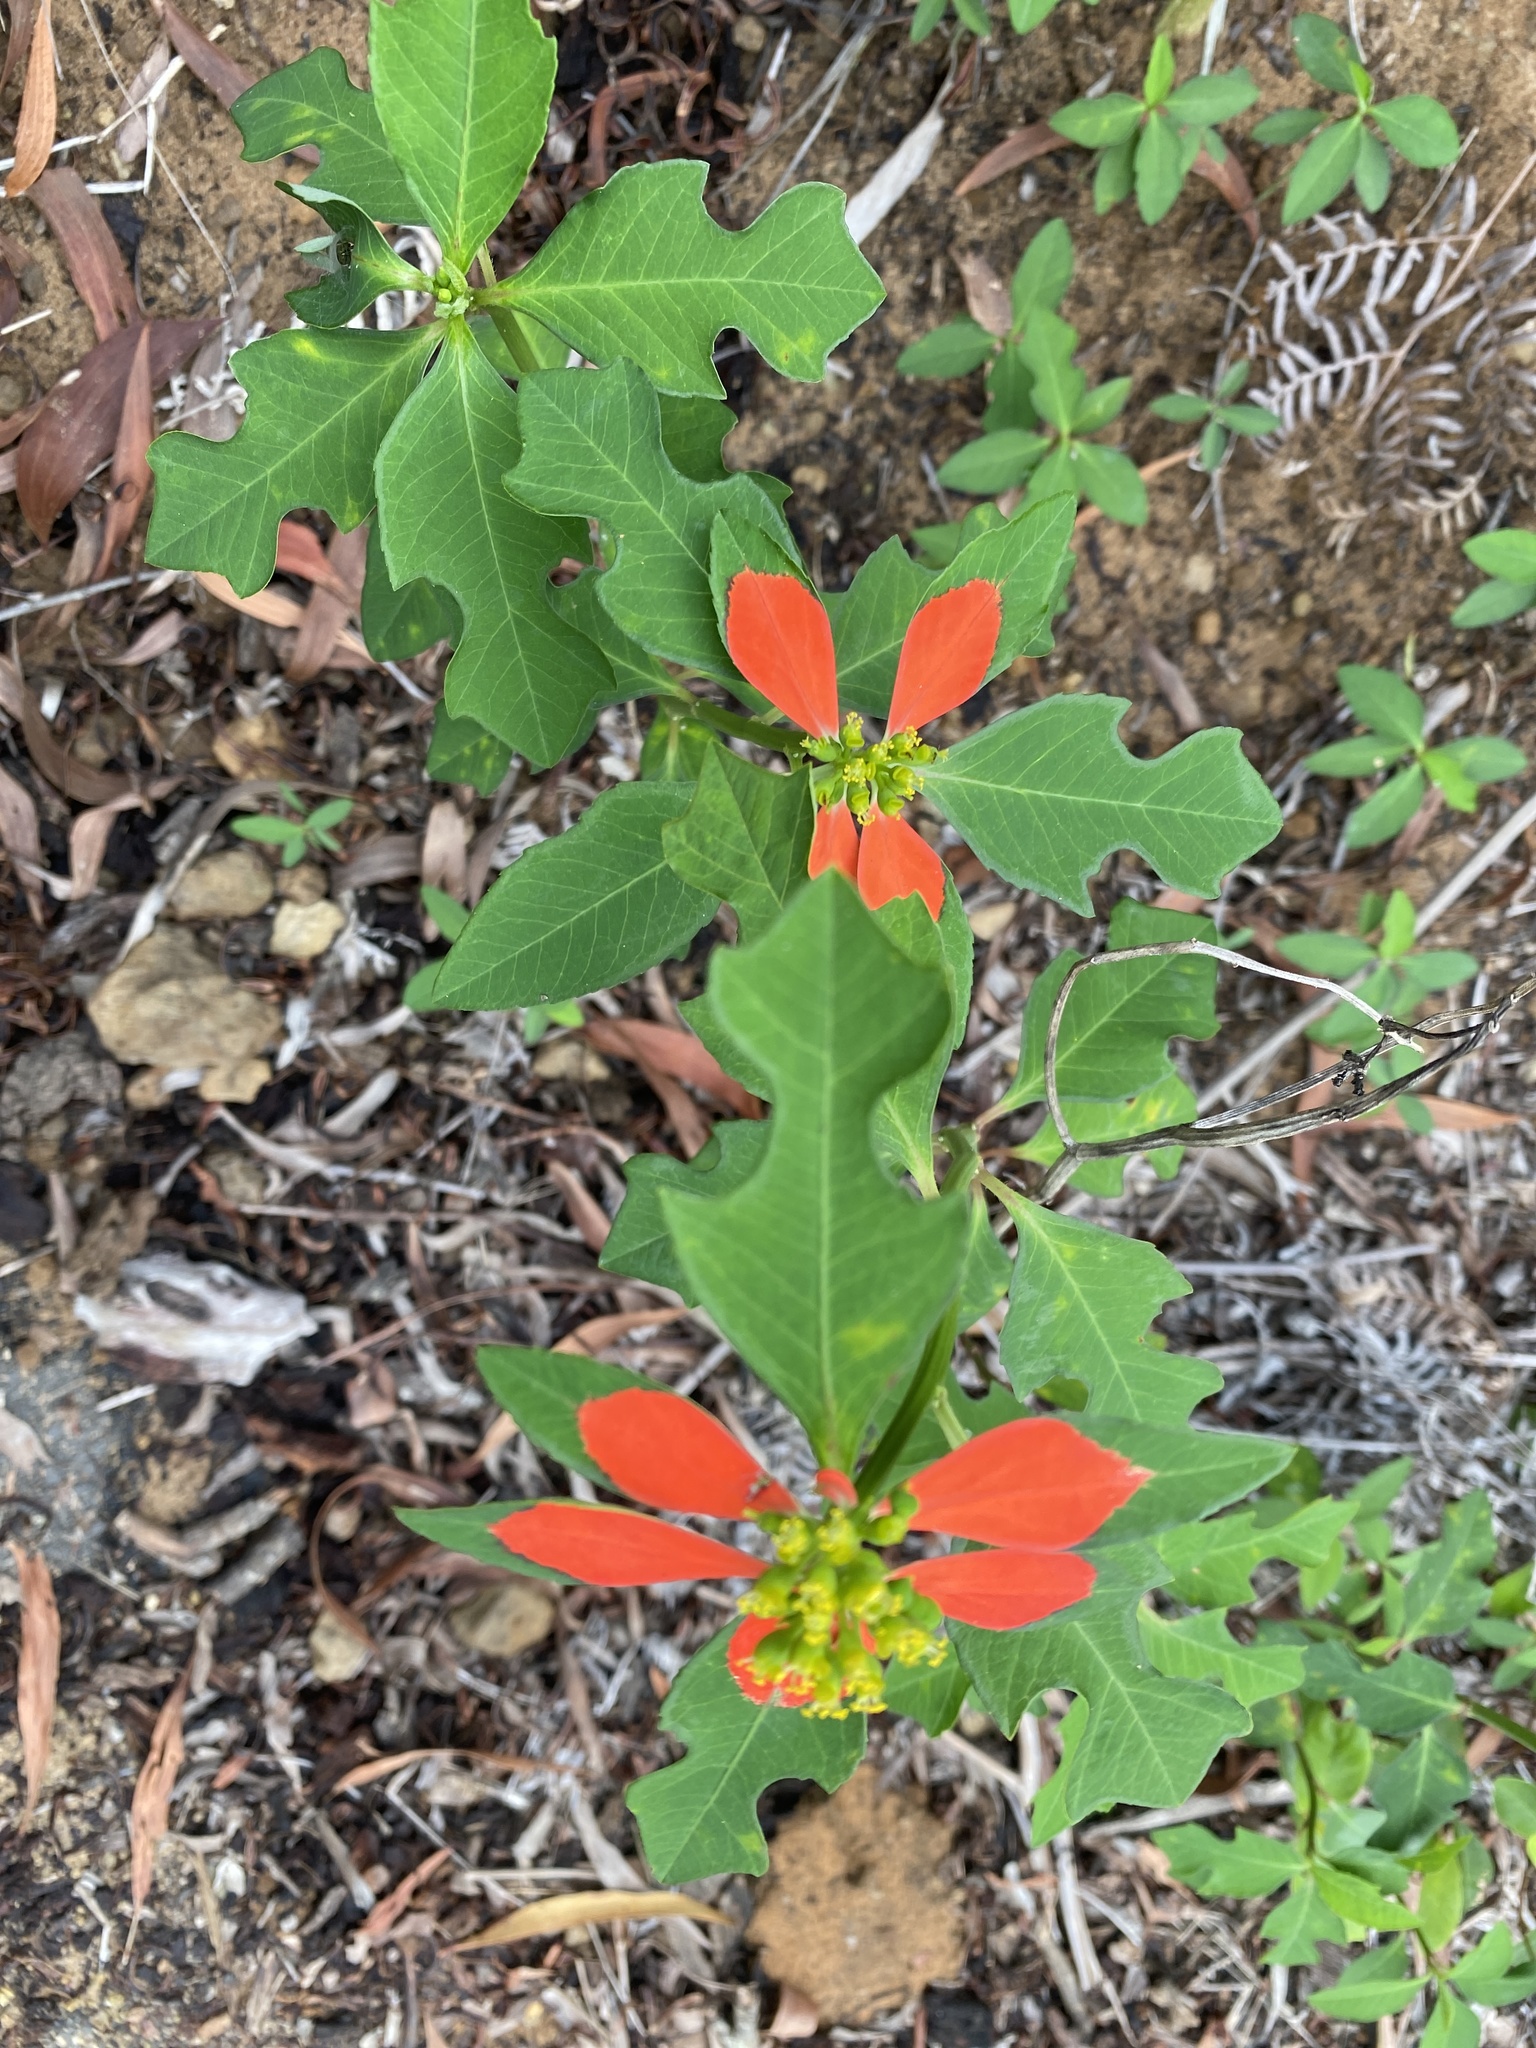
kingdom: Plantae
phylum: Tracheophyta
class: Magnoliopsida
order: Malpighiales
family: Euphorbiaceae
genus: Euphorbia
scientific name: Euphorbia heterophylla
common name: Mexican fireplant
